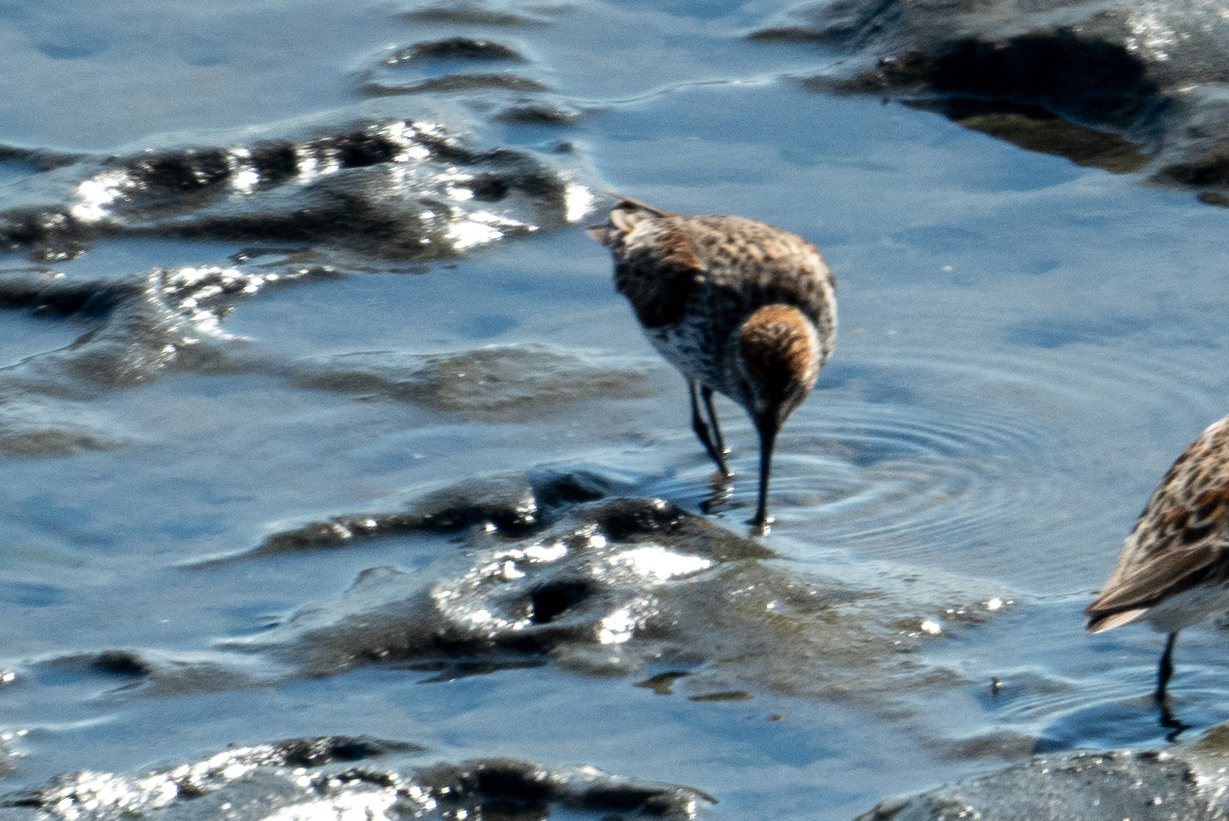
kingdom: Animalia
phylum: Chordata
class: Aves
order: Charadriiformes
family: Scolopacidae
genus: Calidris
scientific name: Calidris mauri
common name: Western sandpiper
